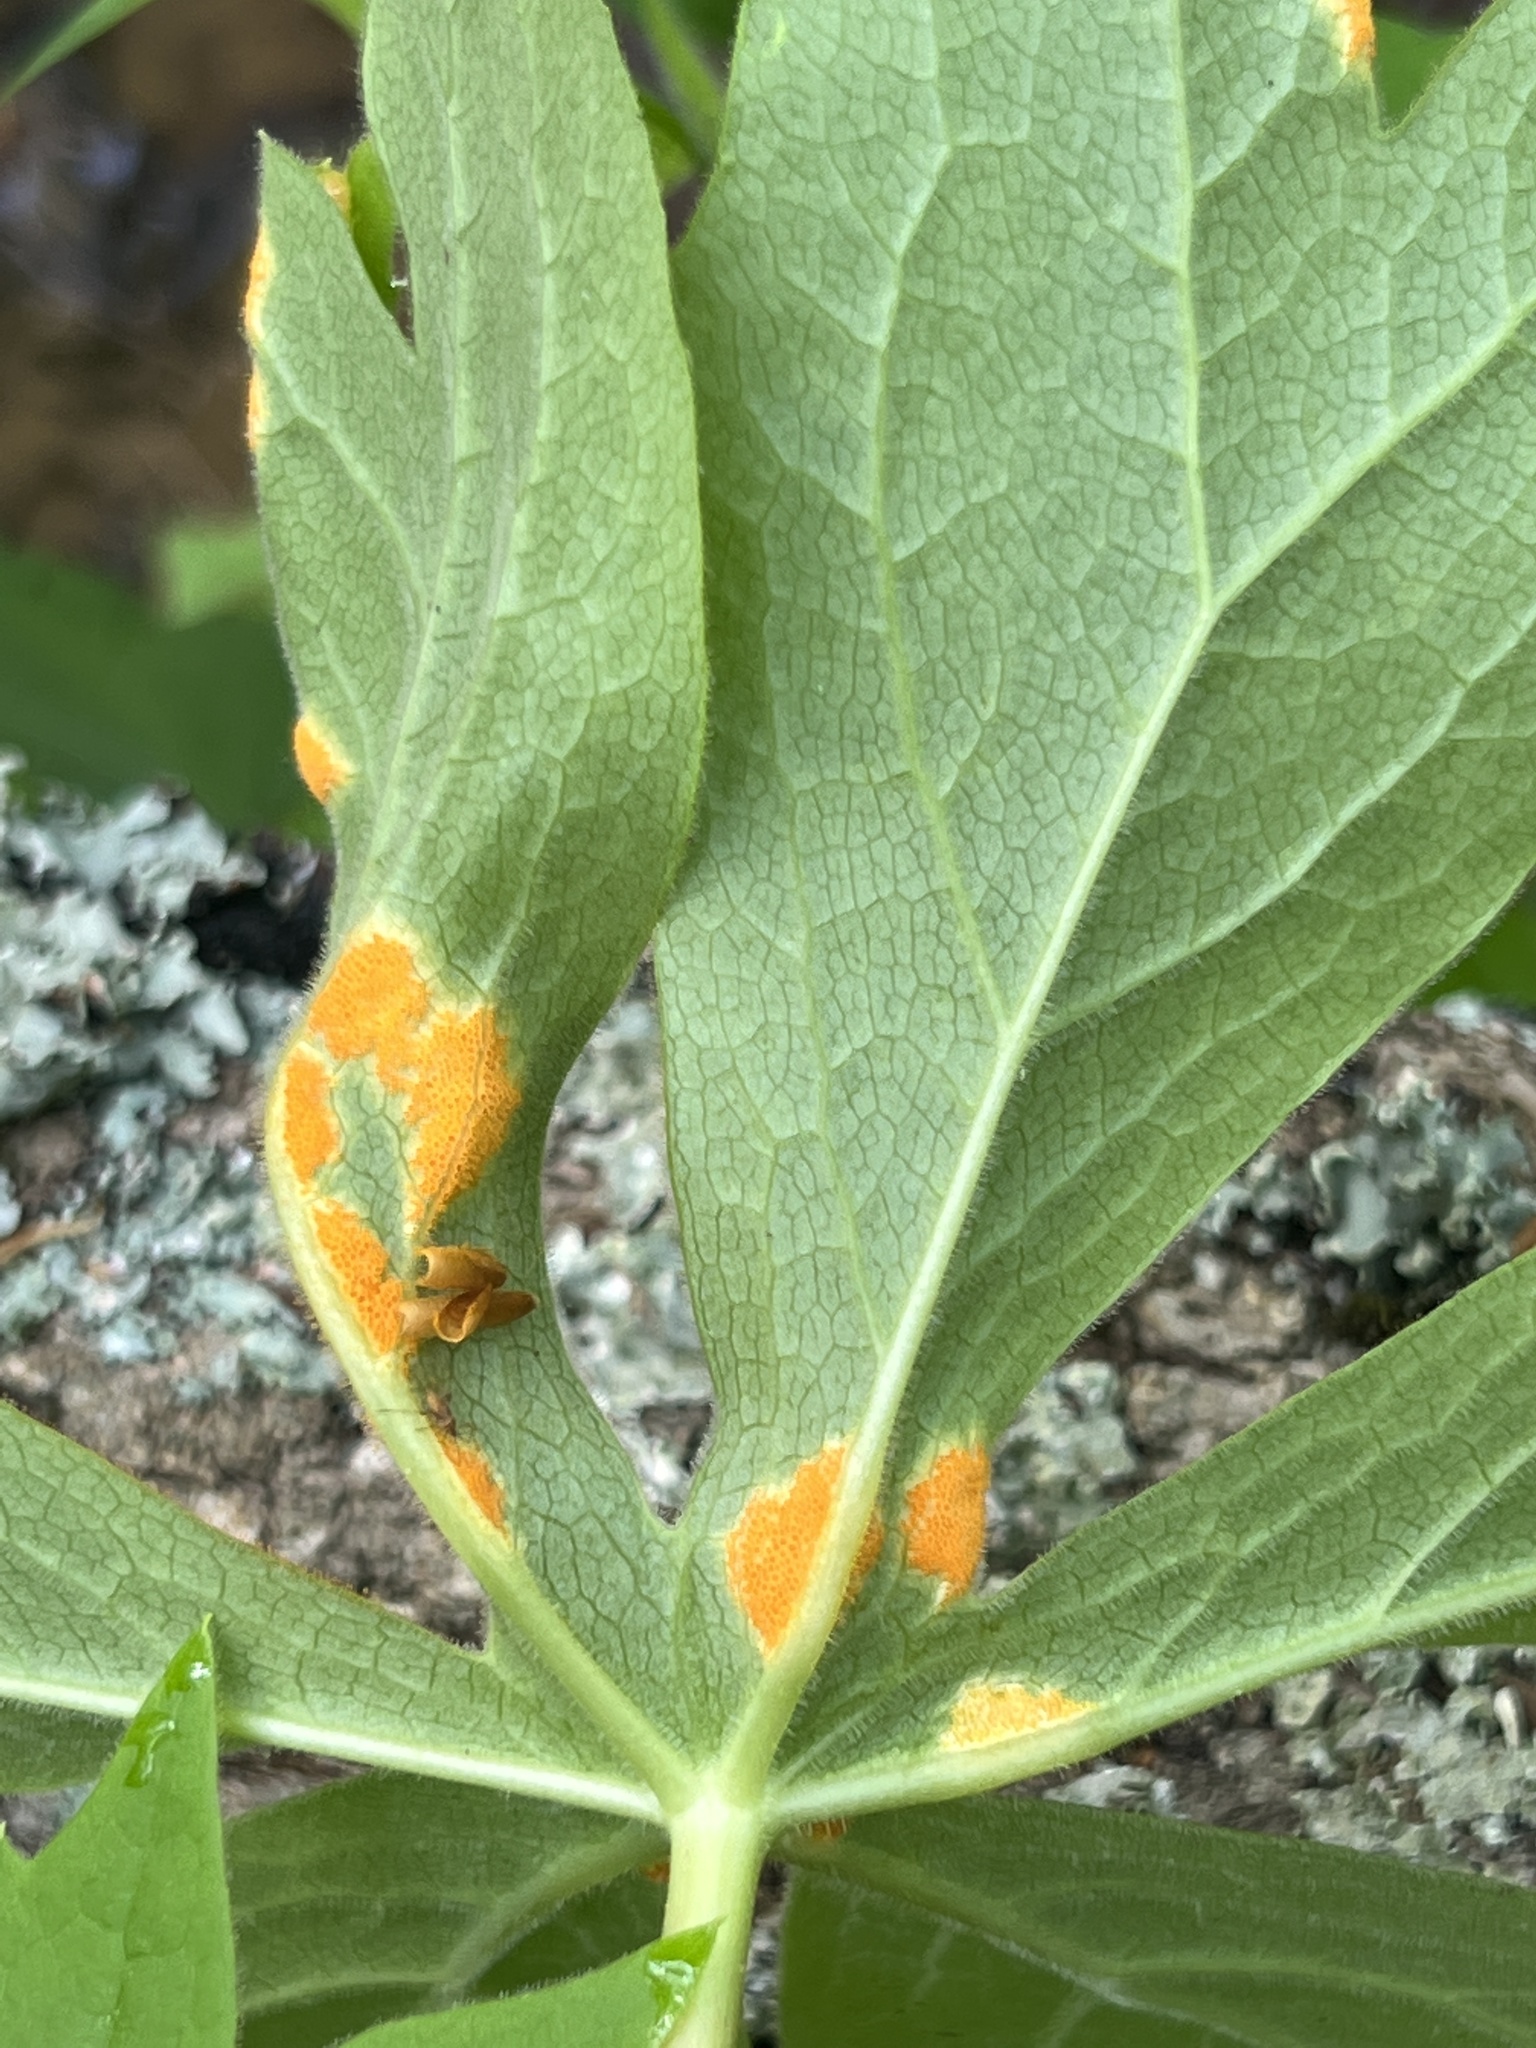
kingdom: Fungi
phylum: Basidiomycota
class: Pucciniomycetes
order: Pucciniales
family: Pucciniaceae
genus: Puccinia
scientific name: Puccinia podophylli
